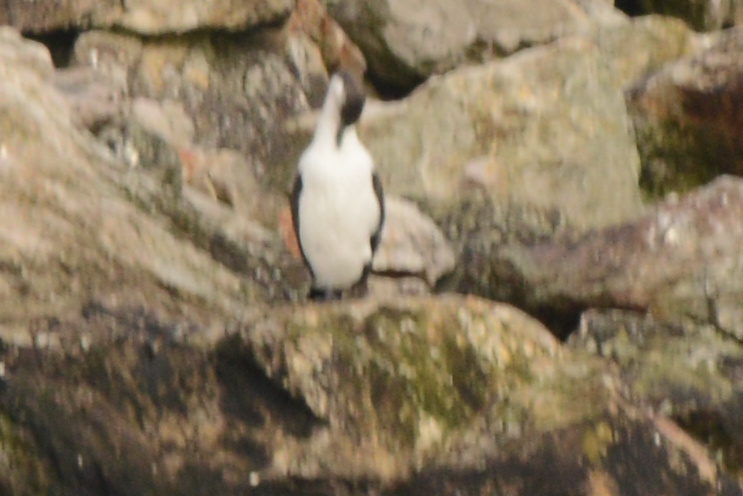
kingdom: Animalia
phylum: Chordata
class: Aves
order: Suliformes
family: Phalacrocoracidae
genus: Phalacrocorax
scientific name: Phalacrocorax fuscescens
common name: Black-faced cormorant
